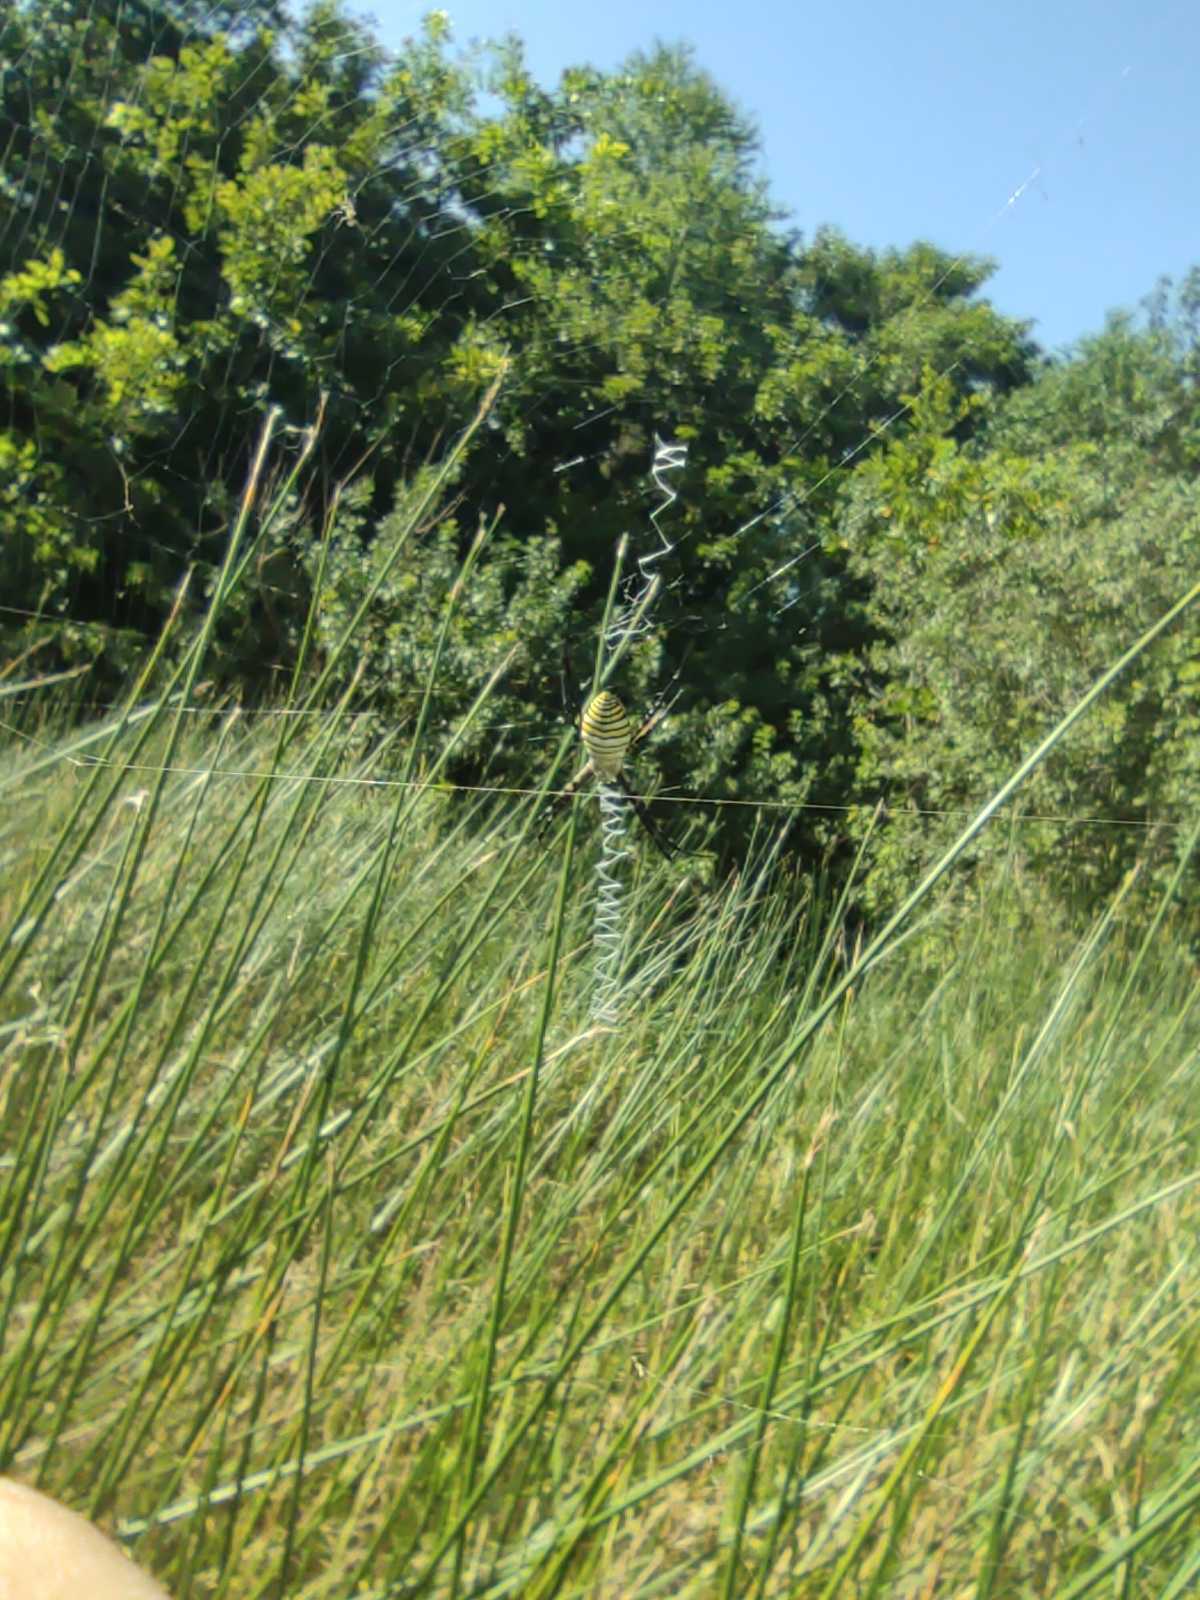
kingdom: Animalia
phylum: Arthropoda
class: Arachnida
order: Araneae
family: Araneidae
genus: Argiope
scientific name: Argiope trifasciata
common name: Banded garden spider
